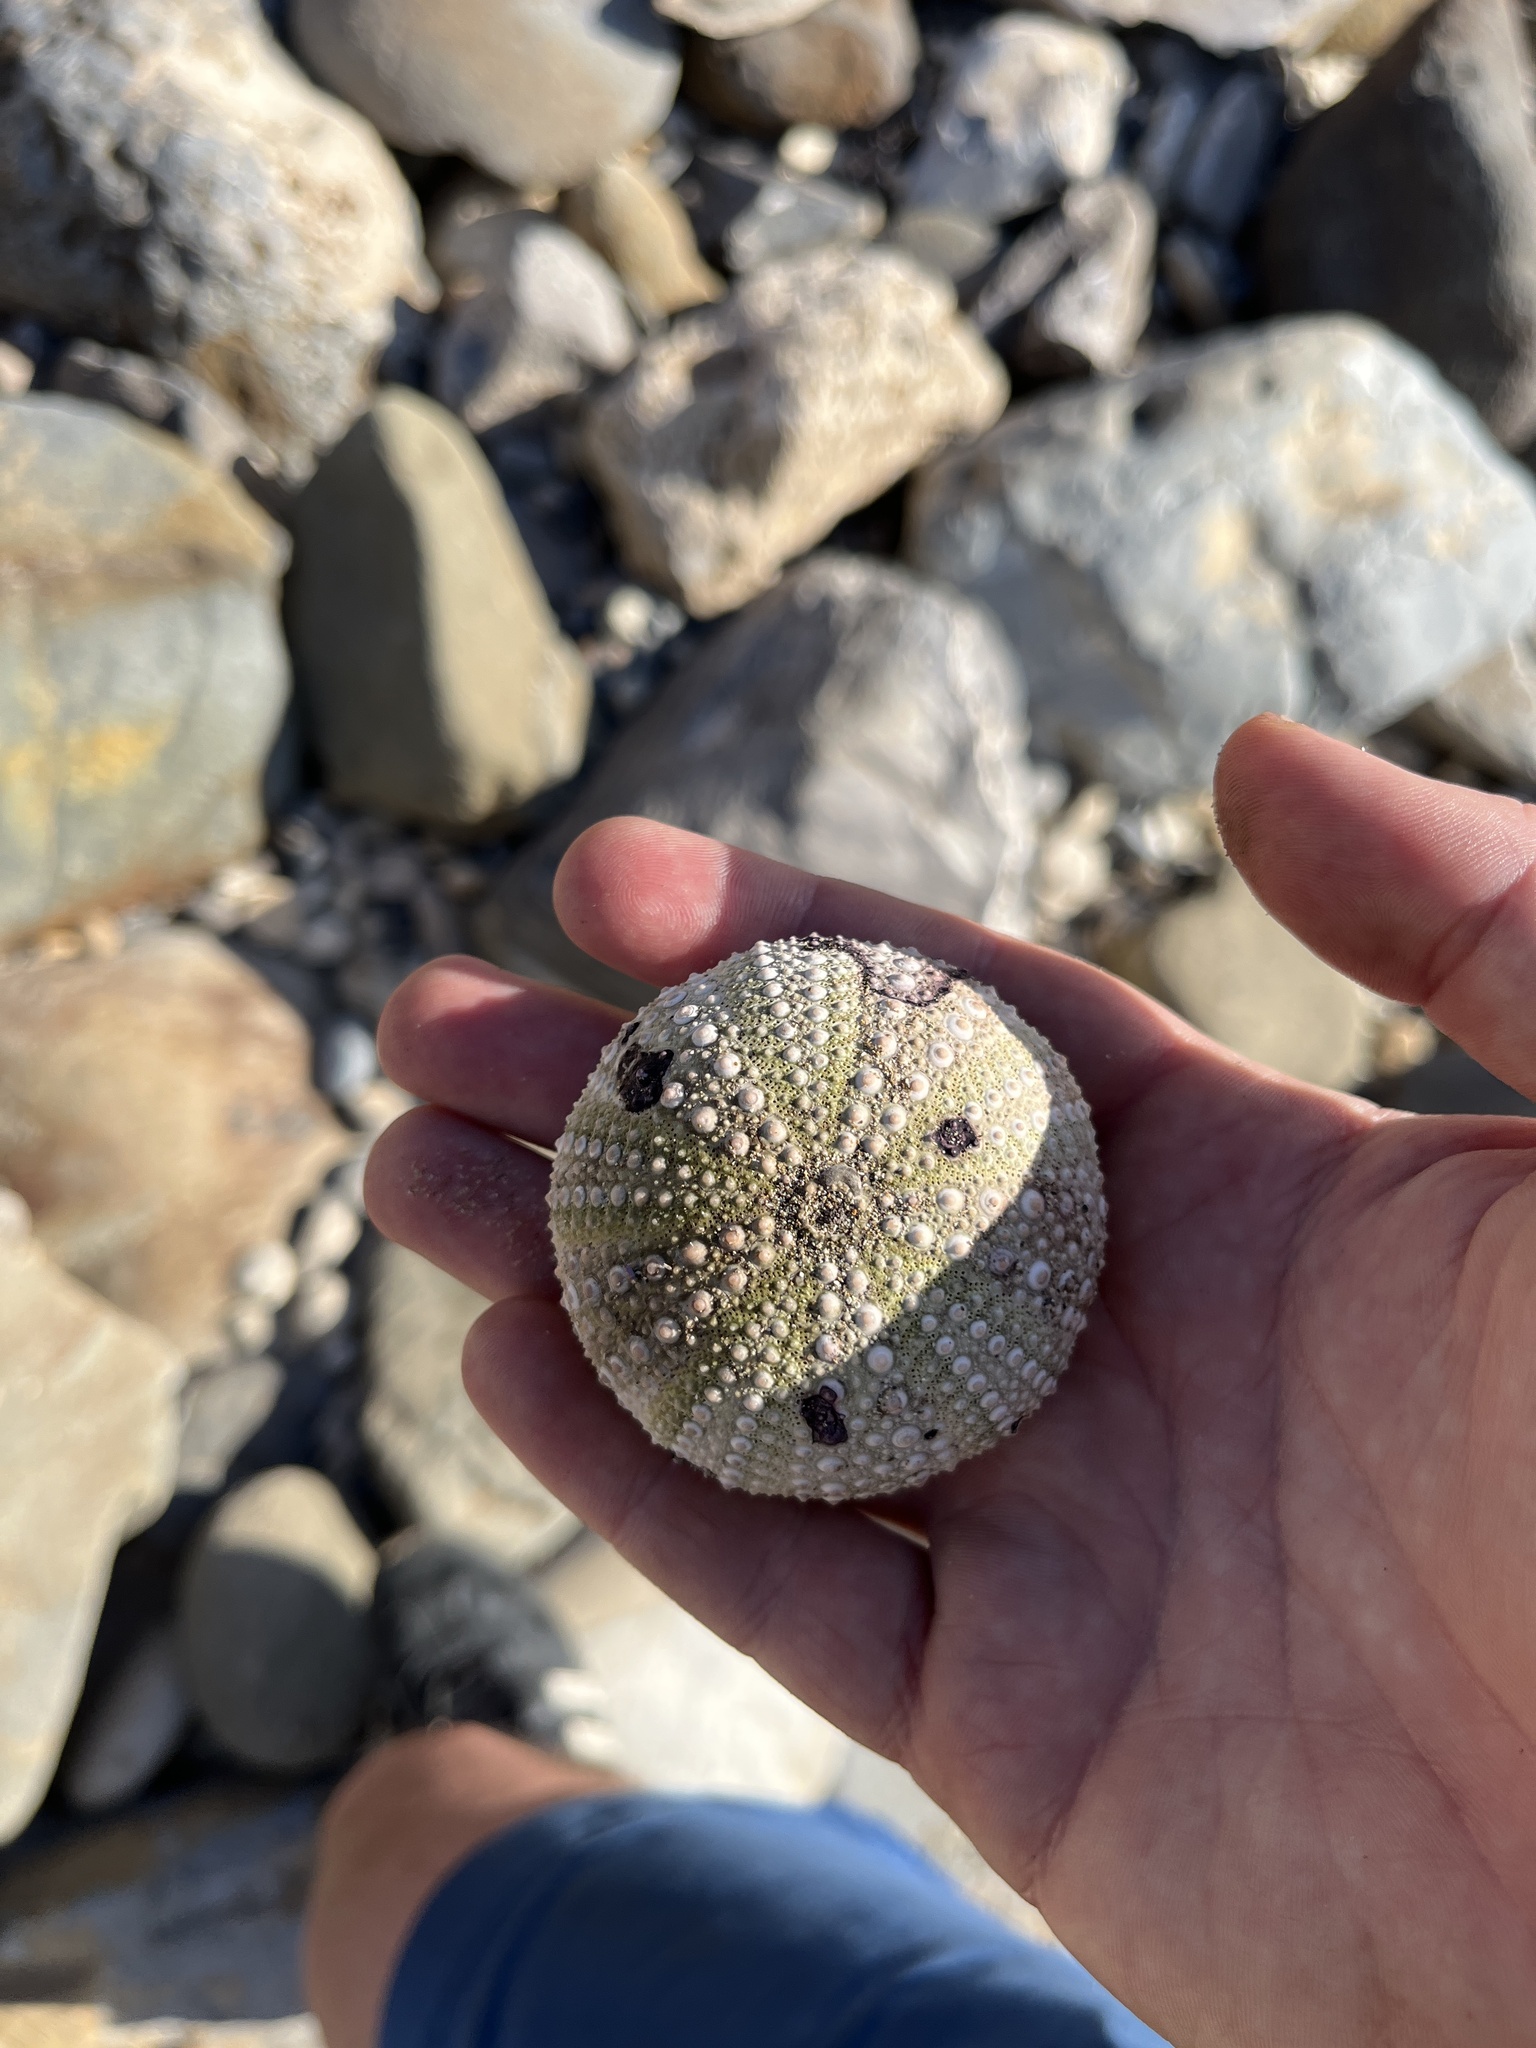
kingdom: Animalia
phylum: Echinodermata
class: Echinoidea
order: Camarodonta
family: Strongylocentrotidae
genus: Strongylocentrotus
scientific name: Strongylocentrotus purpuratus
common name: Purple sea urchin
